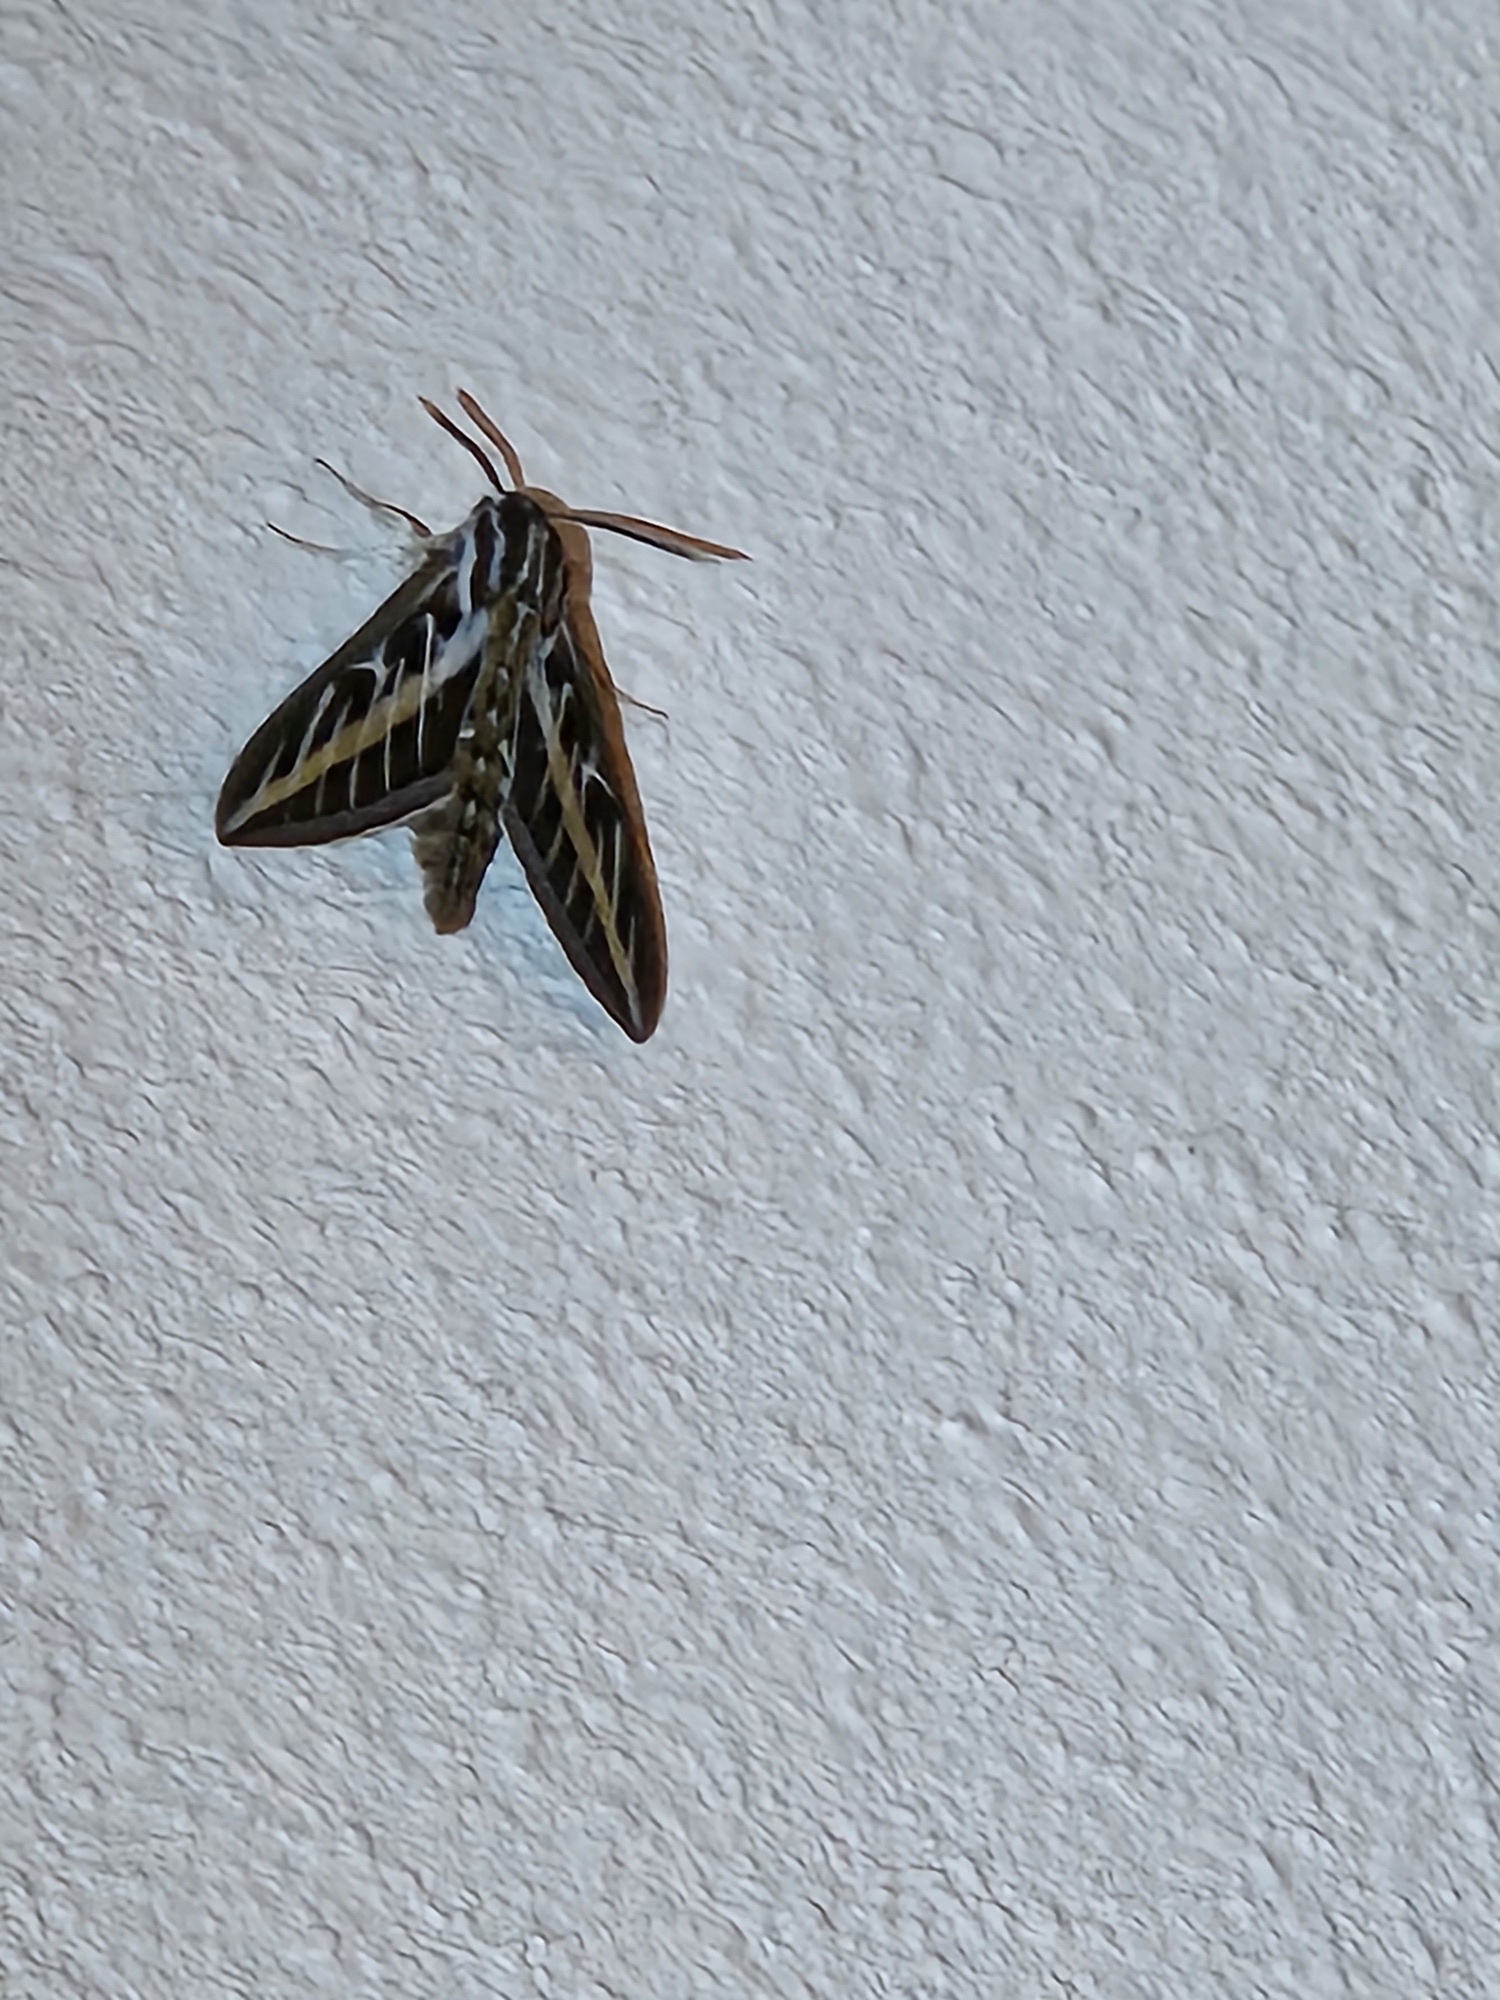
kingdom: Animalia
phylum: Arthropoda
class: Insecta
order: Lepidoptera
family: Sphingidae
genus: Hyles
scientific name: Hyles lineata
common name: White-lined sphinx
